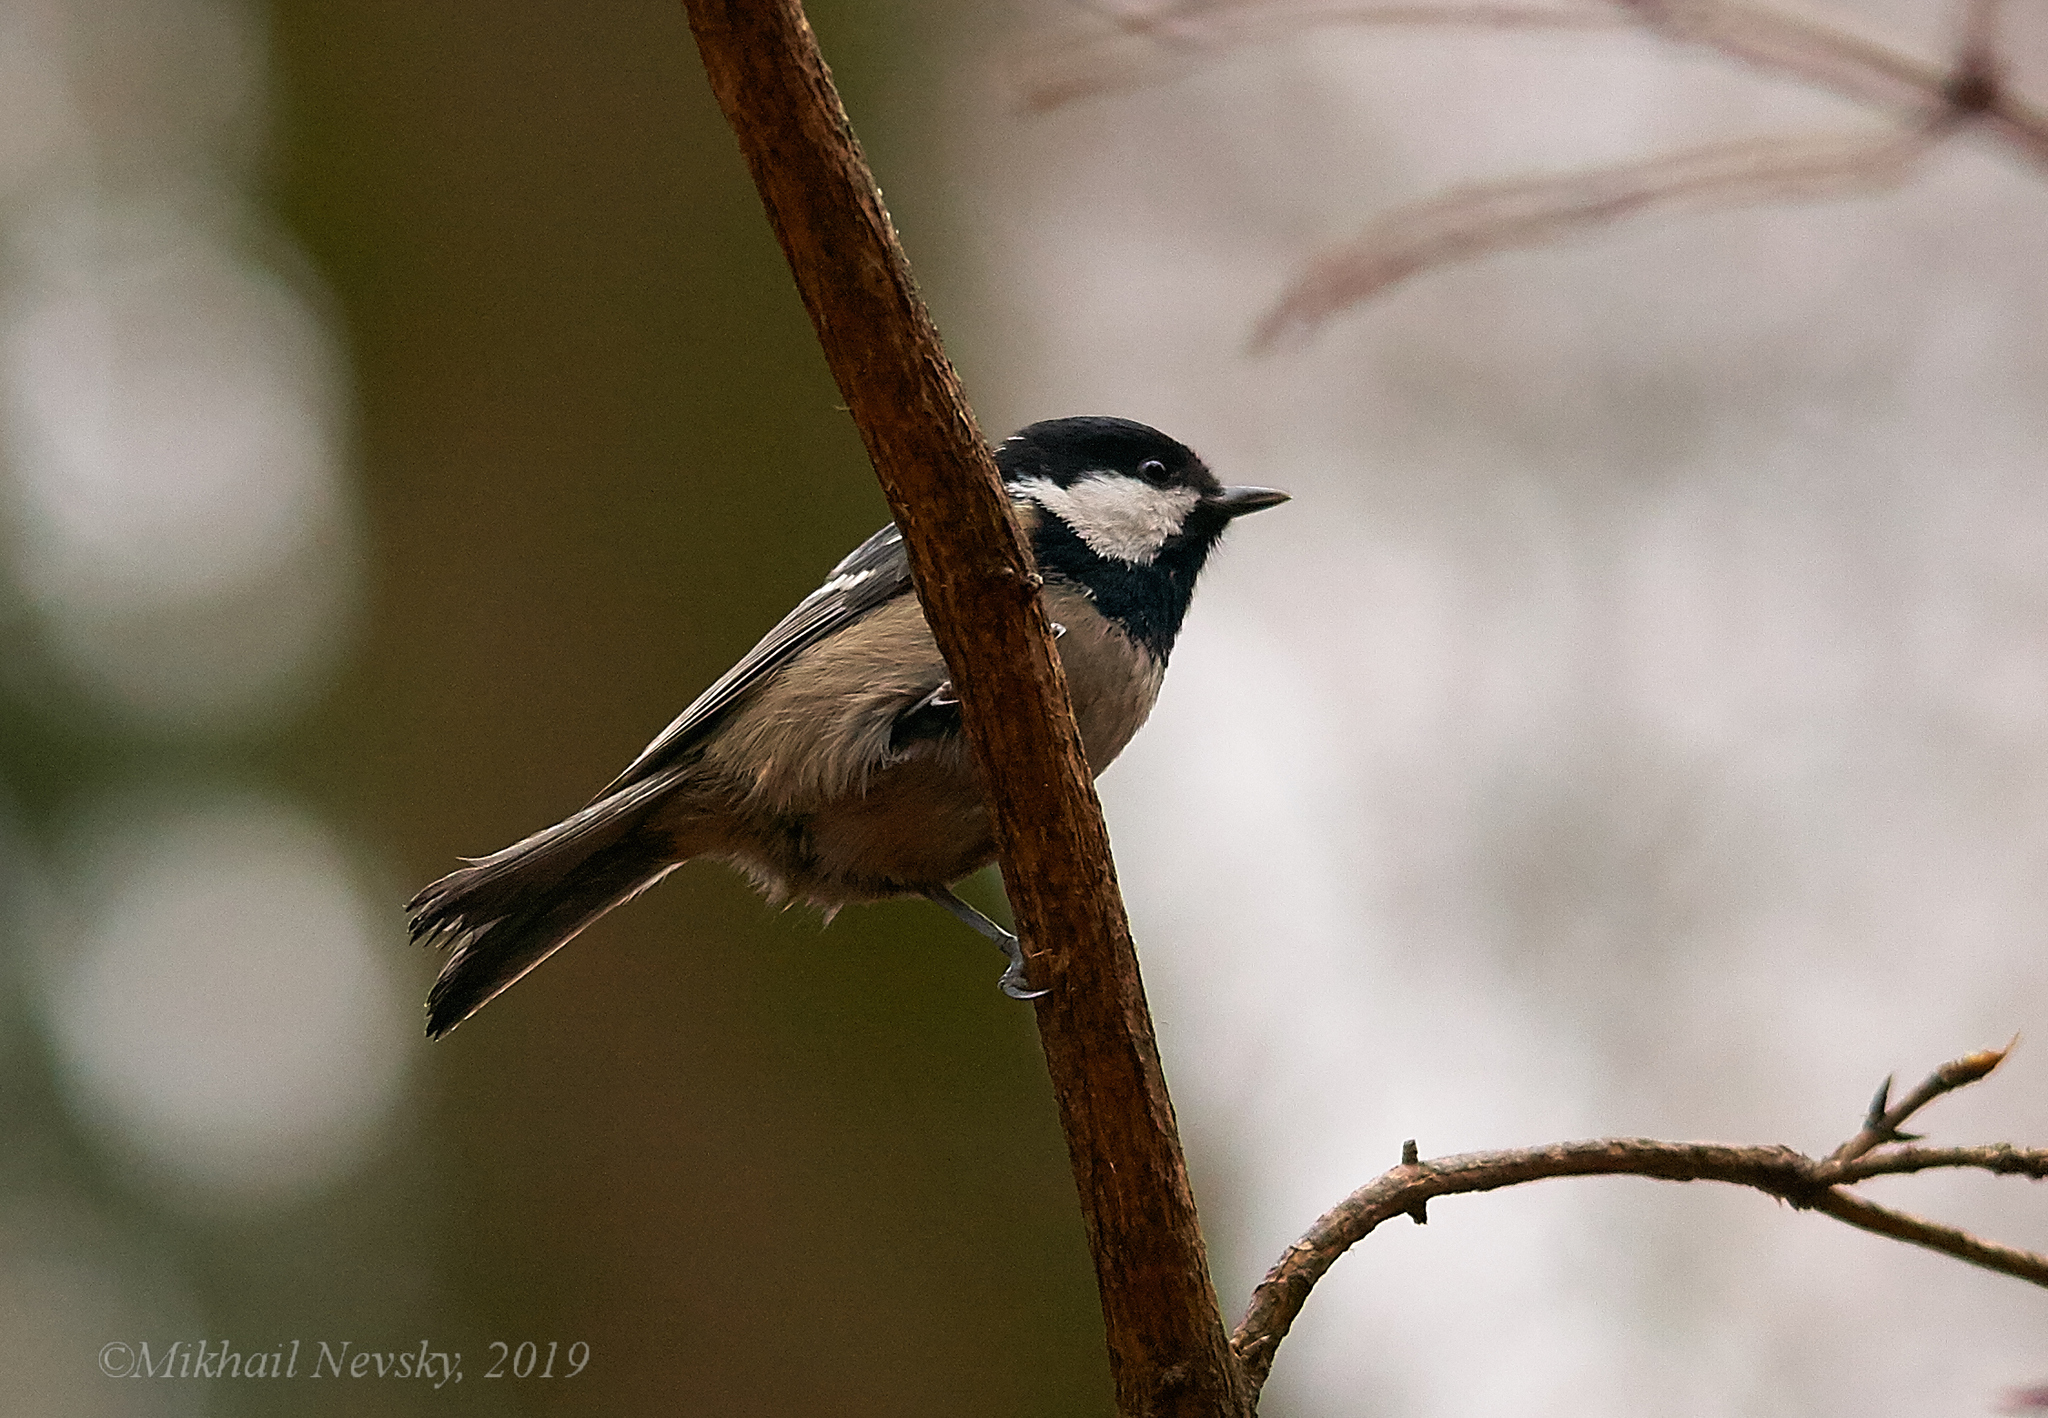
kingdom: Animalia
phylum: Chordata
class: Aves
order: Passeriformes
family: Paridae
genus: Periparus
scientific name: Periparus ater
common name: Coal tit
